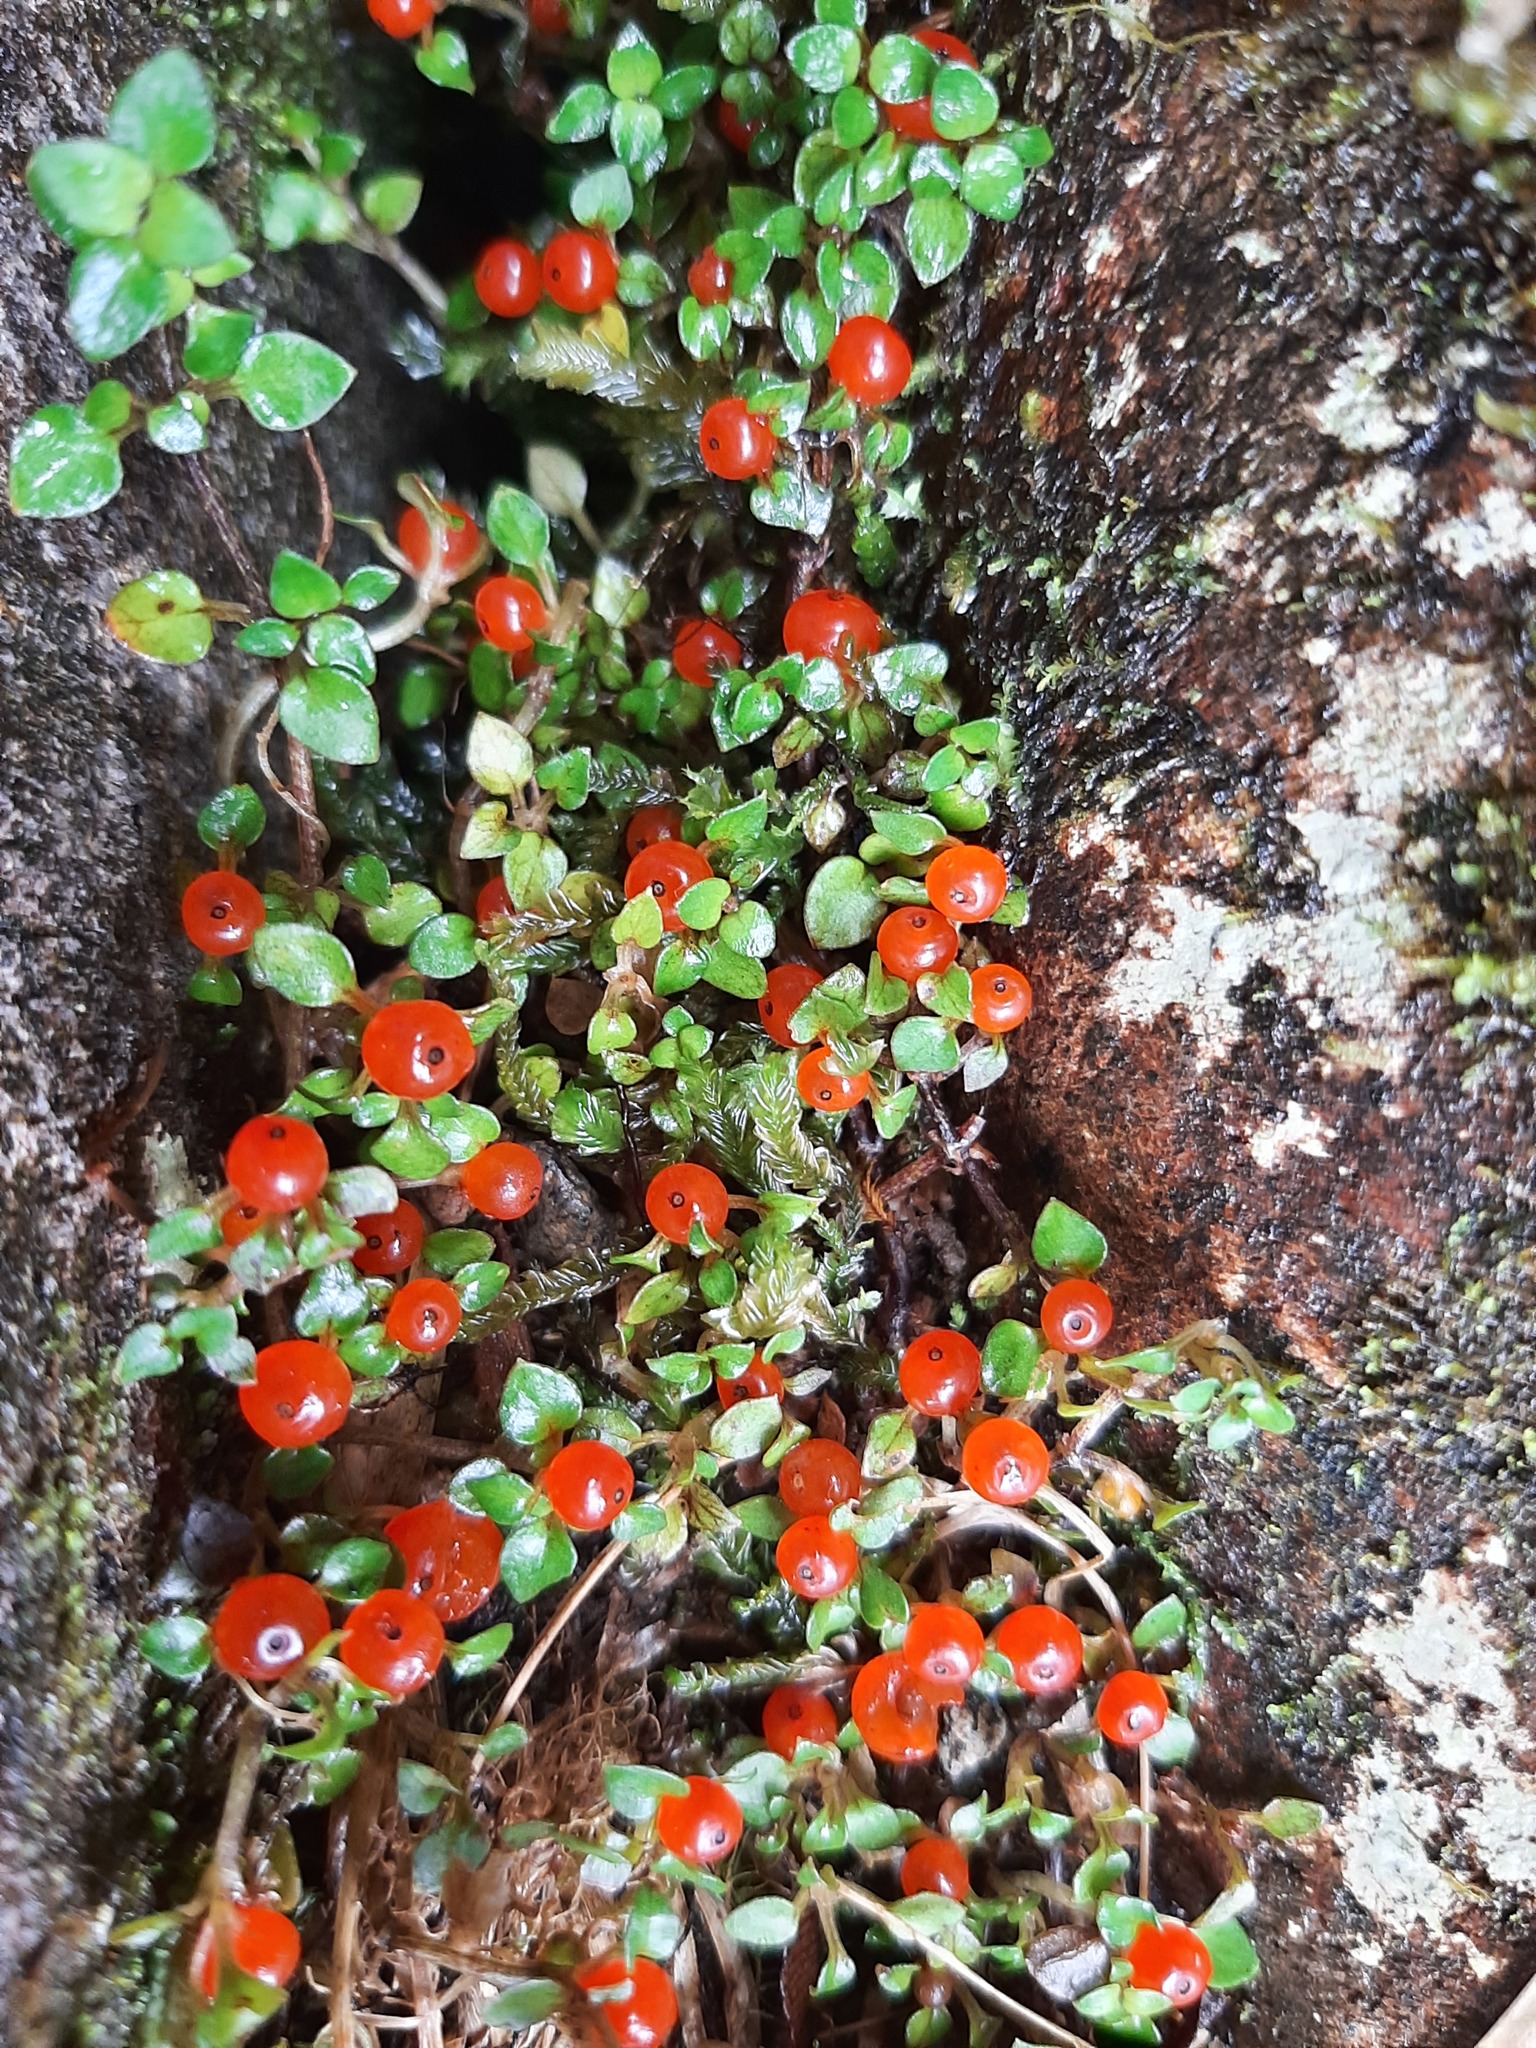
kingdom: Plantae
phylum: Tracheophyta
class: Magnoliopsida
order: Gentianales
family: Rubiaceae
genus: Nertera
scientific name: Nertera granadensis
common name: Beadplant
